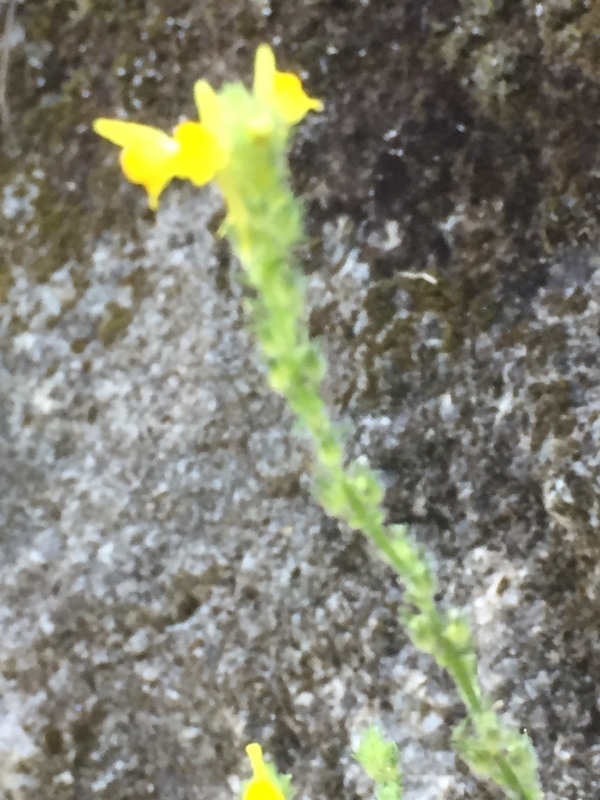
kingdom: Plantae
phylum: Tracheophyta
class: Magnoliopsida
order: Lamiales
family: Plantaginaceae
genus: Linaria
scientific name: Linaria saxatilis
